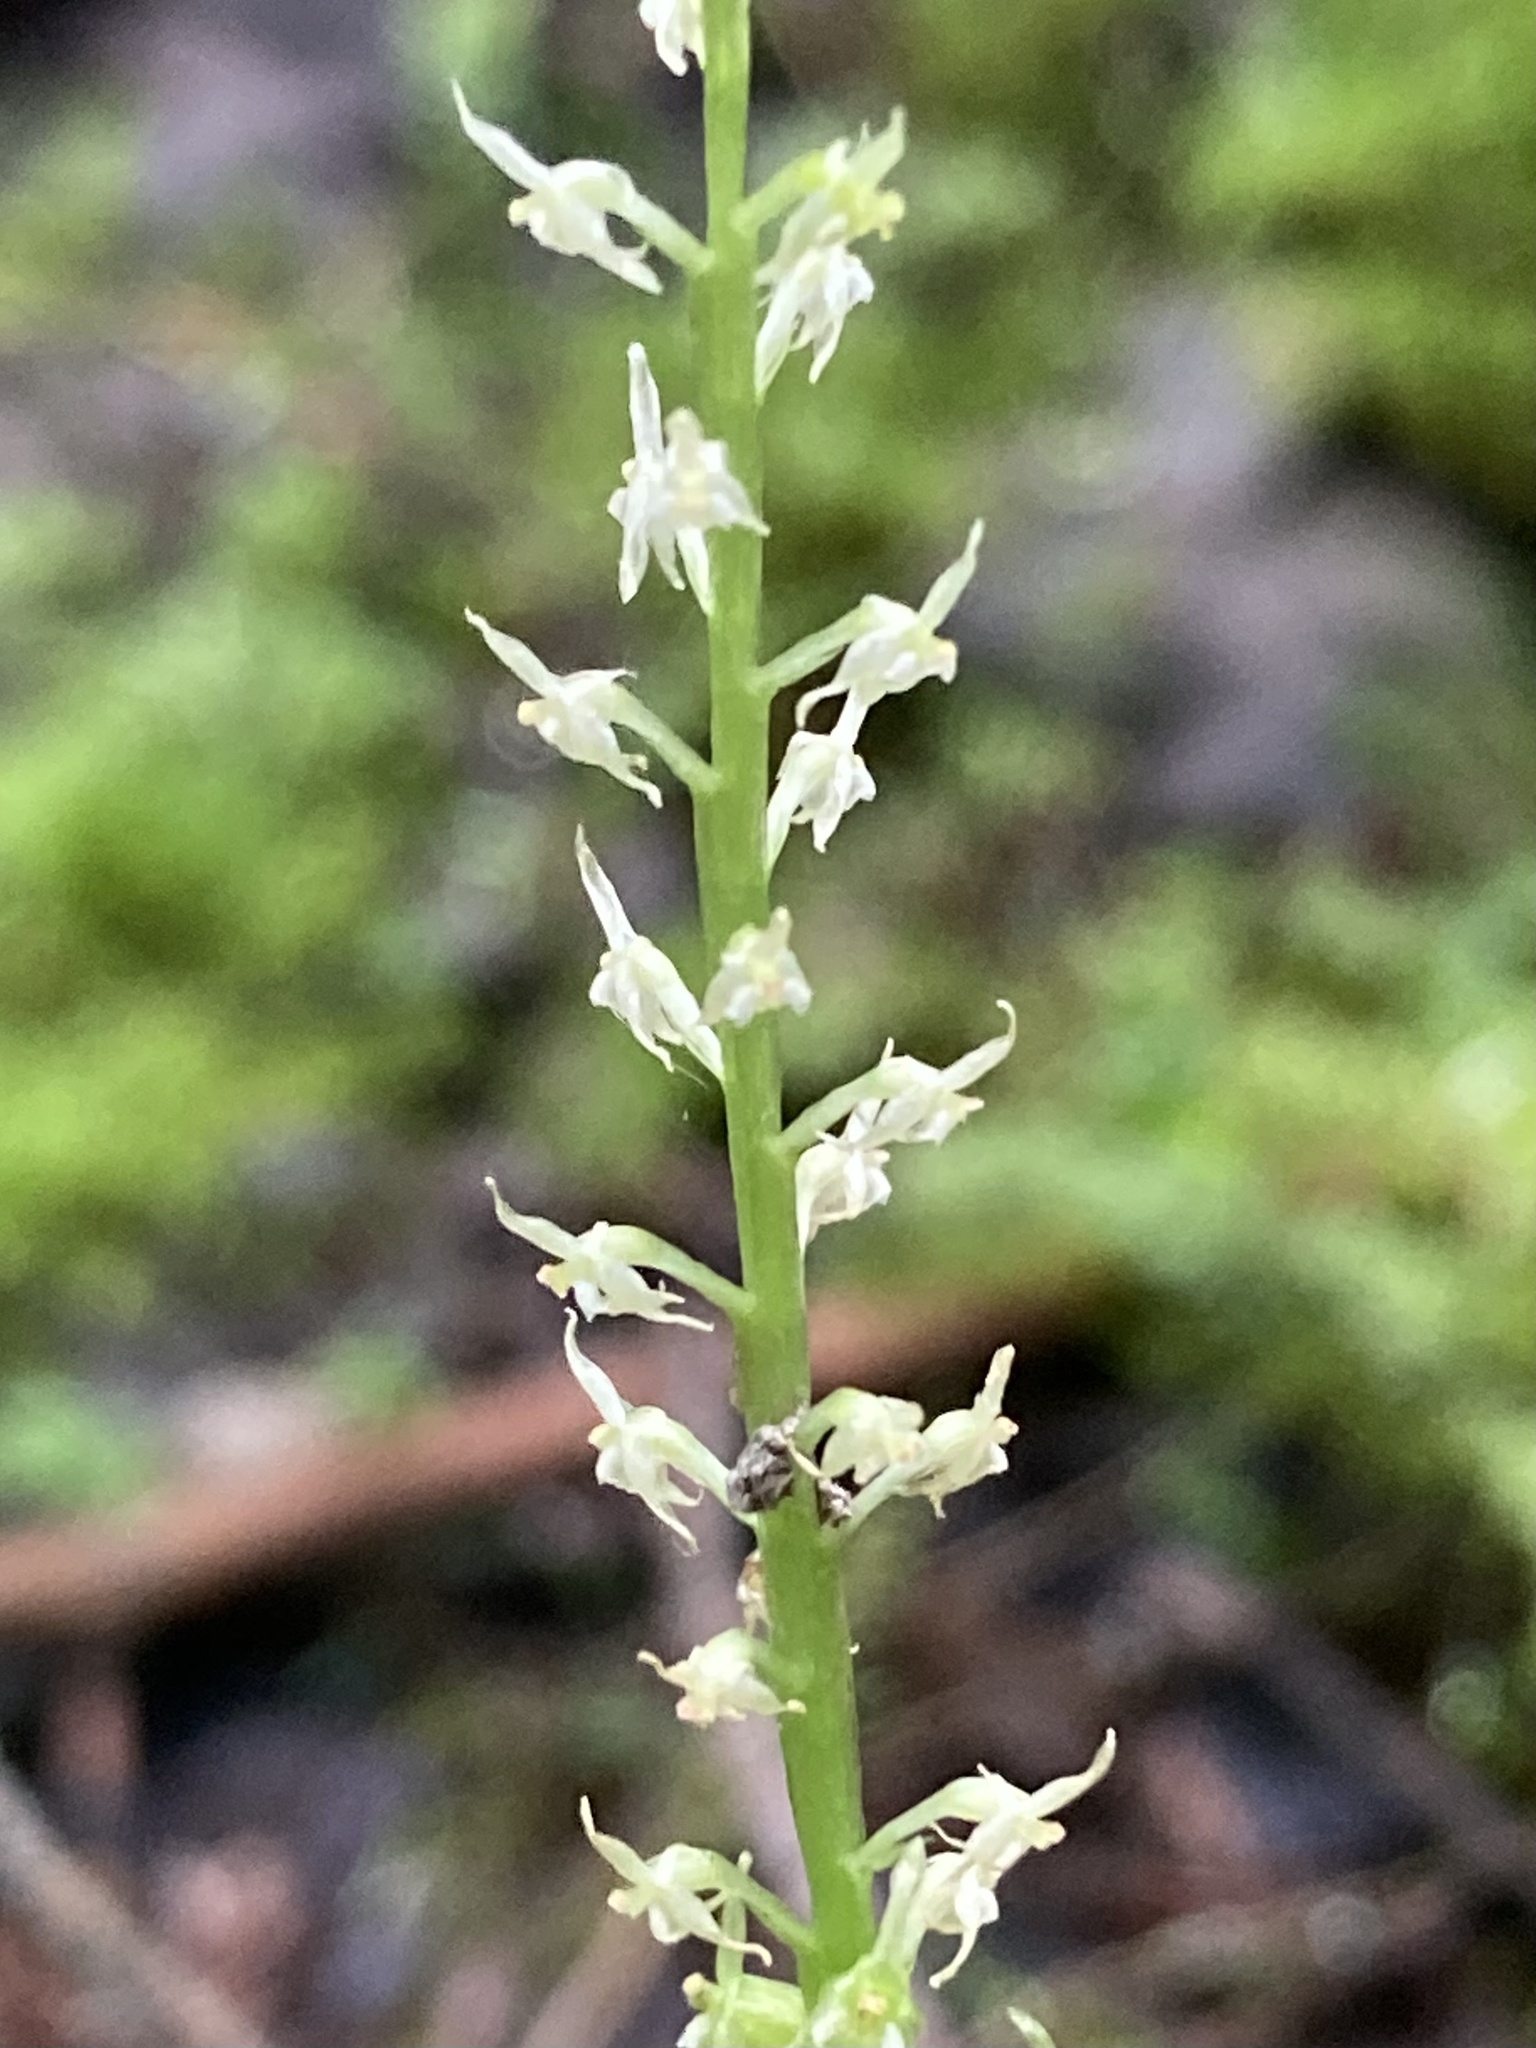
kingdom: Plantae
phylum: Tracheophyta
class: Liliopsida
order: Asparagales
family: Orchidaceae
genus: Malaxis
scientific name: Malaxis monophyllos
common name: White adder's-mouth
